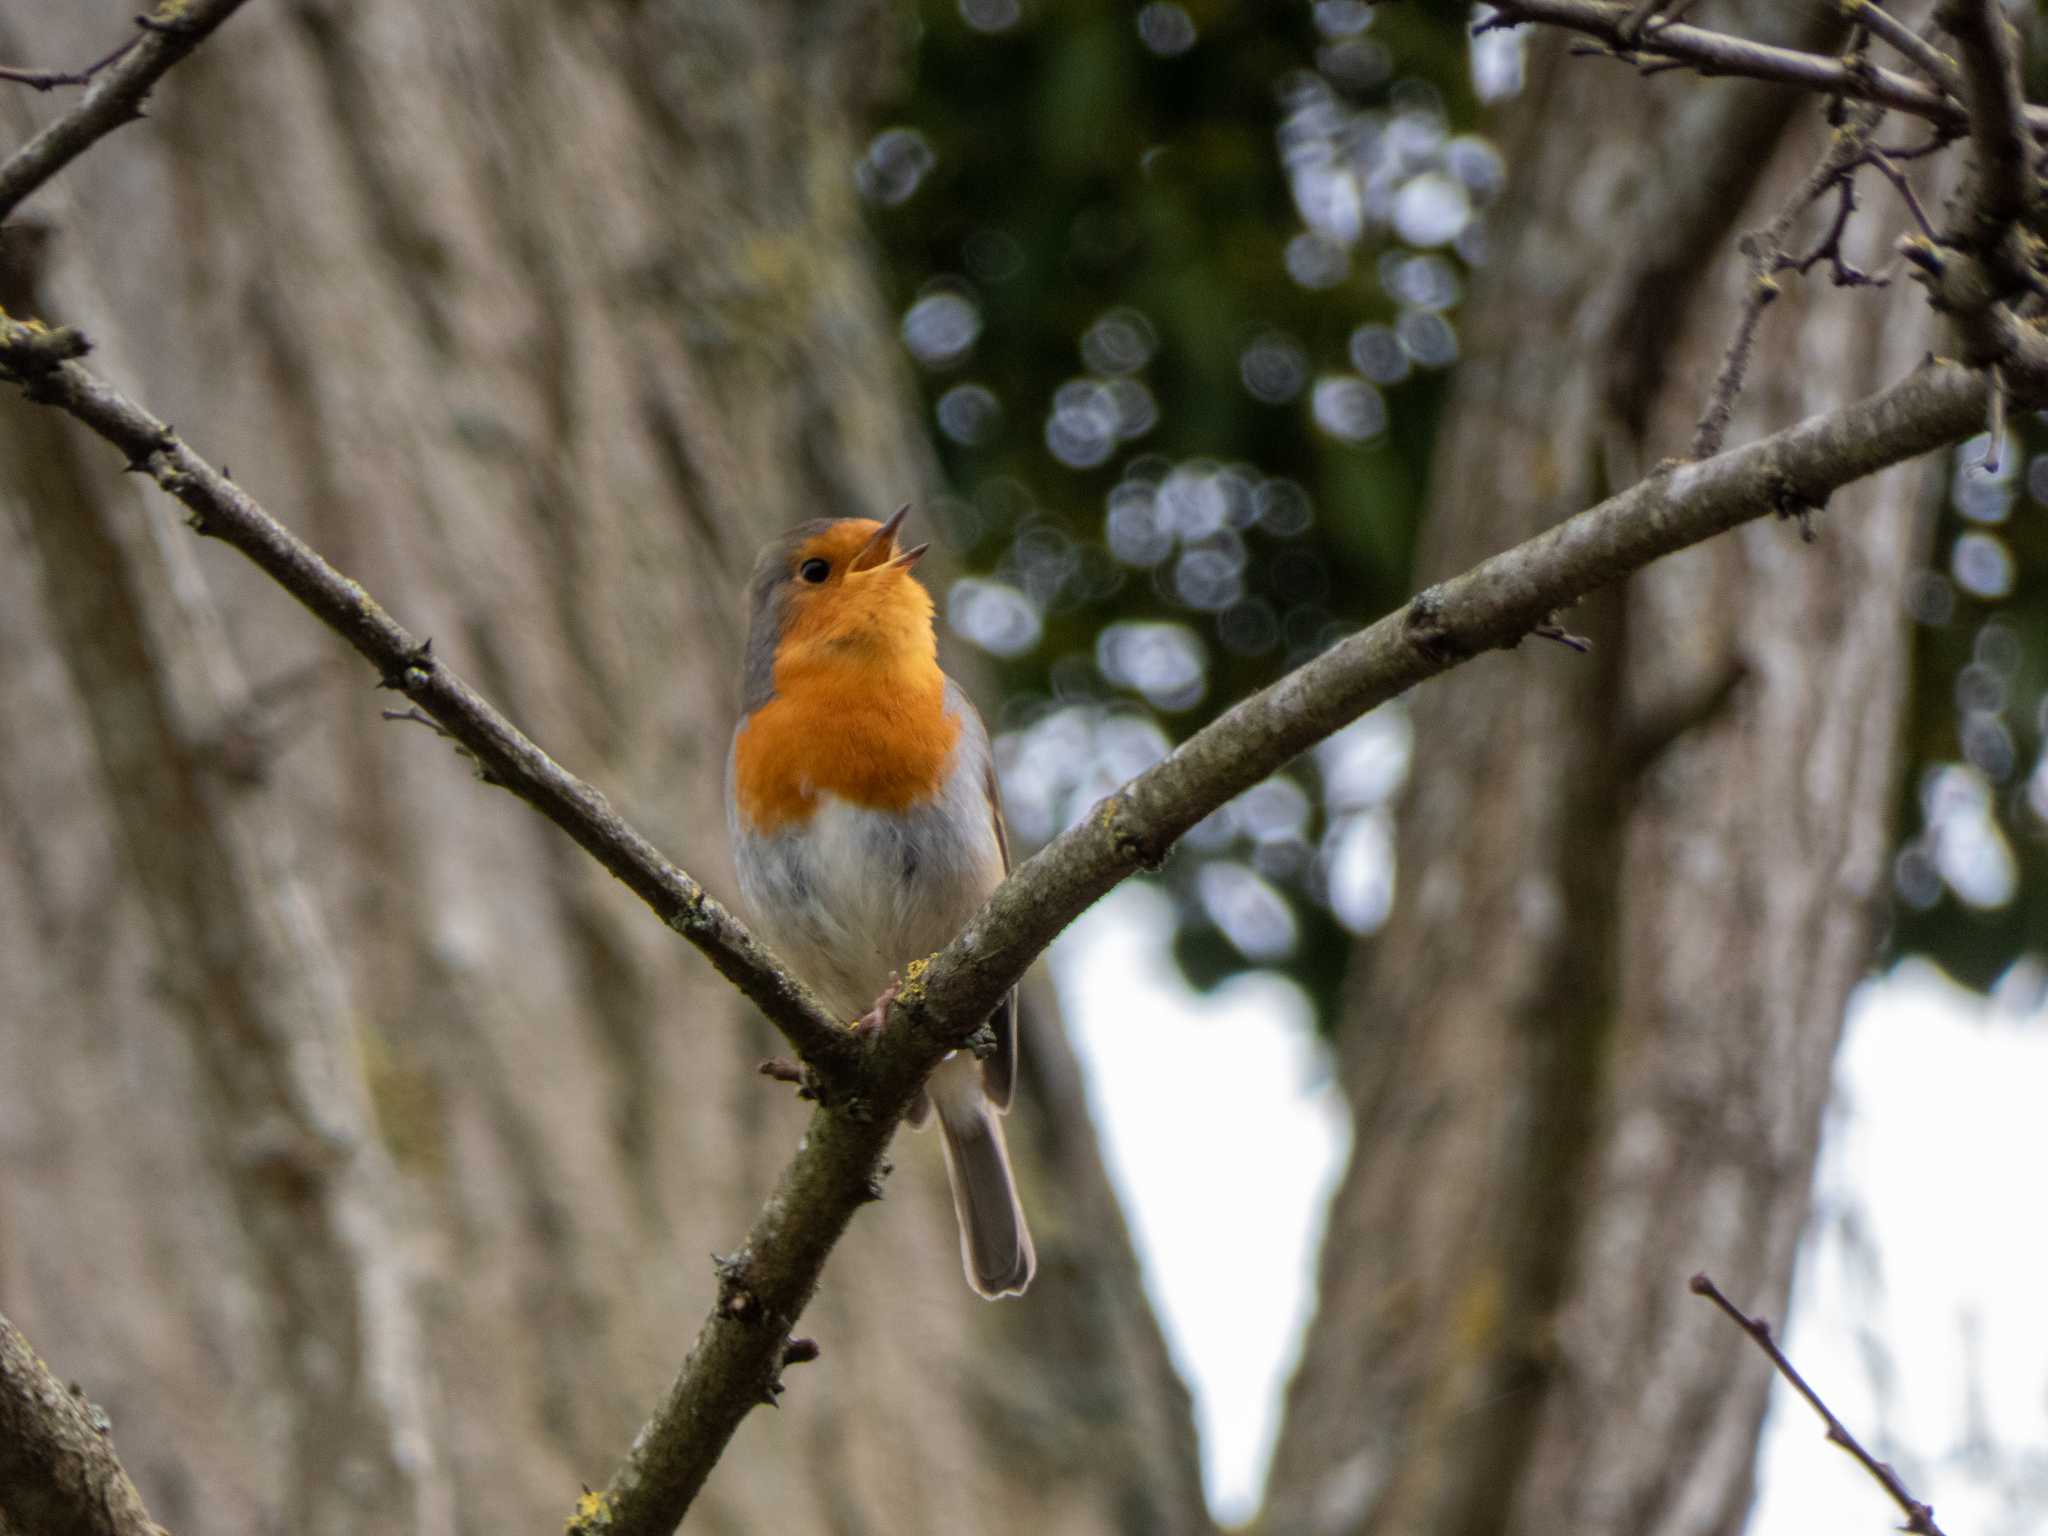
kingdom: Animalia
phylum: Chordata
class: Aves
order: Passeriformes
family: Muscicapidae
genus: Erithacus
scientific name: Erithacus rubecula
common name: European robin
